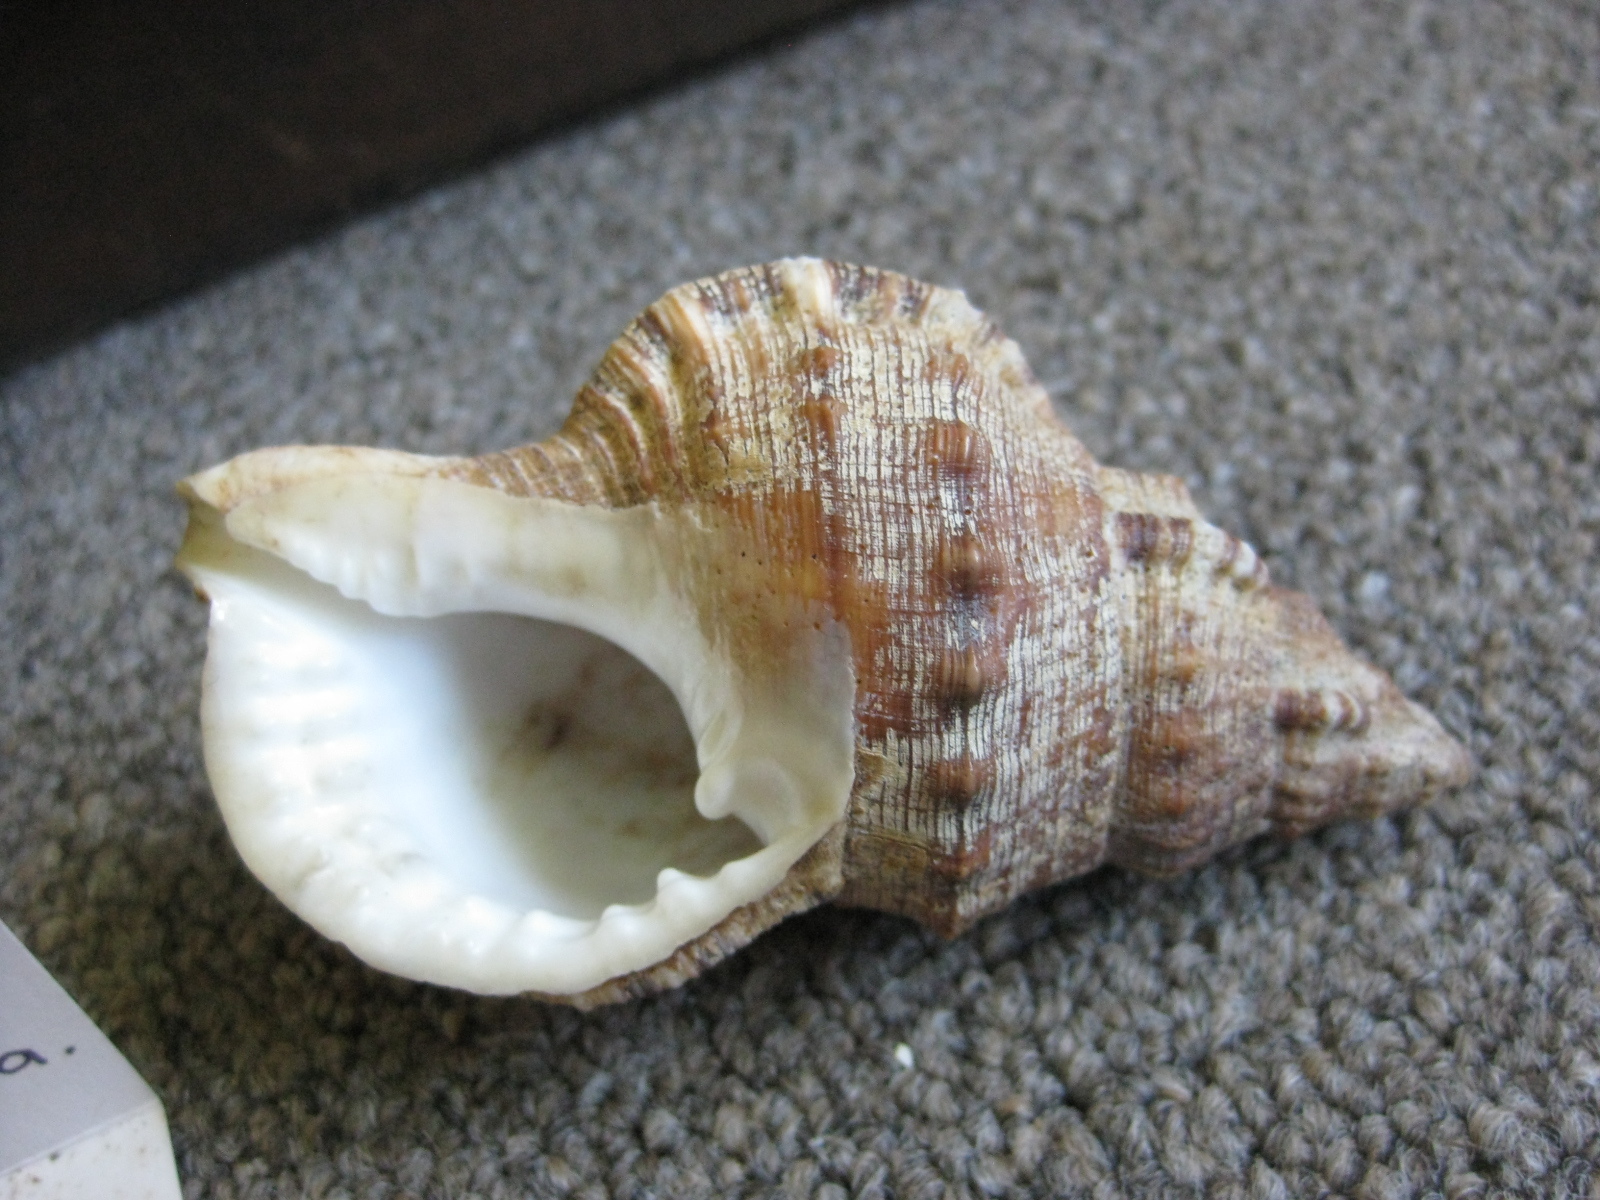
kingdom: Animalia
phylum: Mollusca
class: Gastropoda
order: Littorinimorpha
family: Ranellidae
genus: Ranella
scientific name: Ranella australasia
